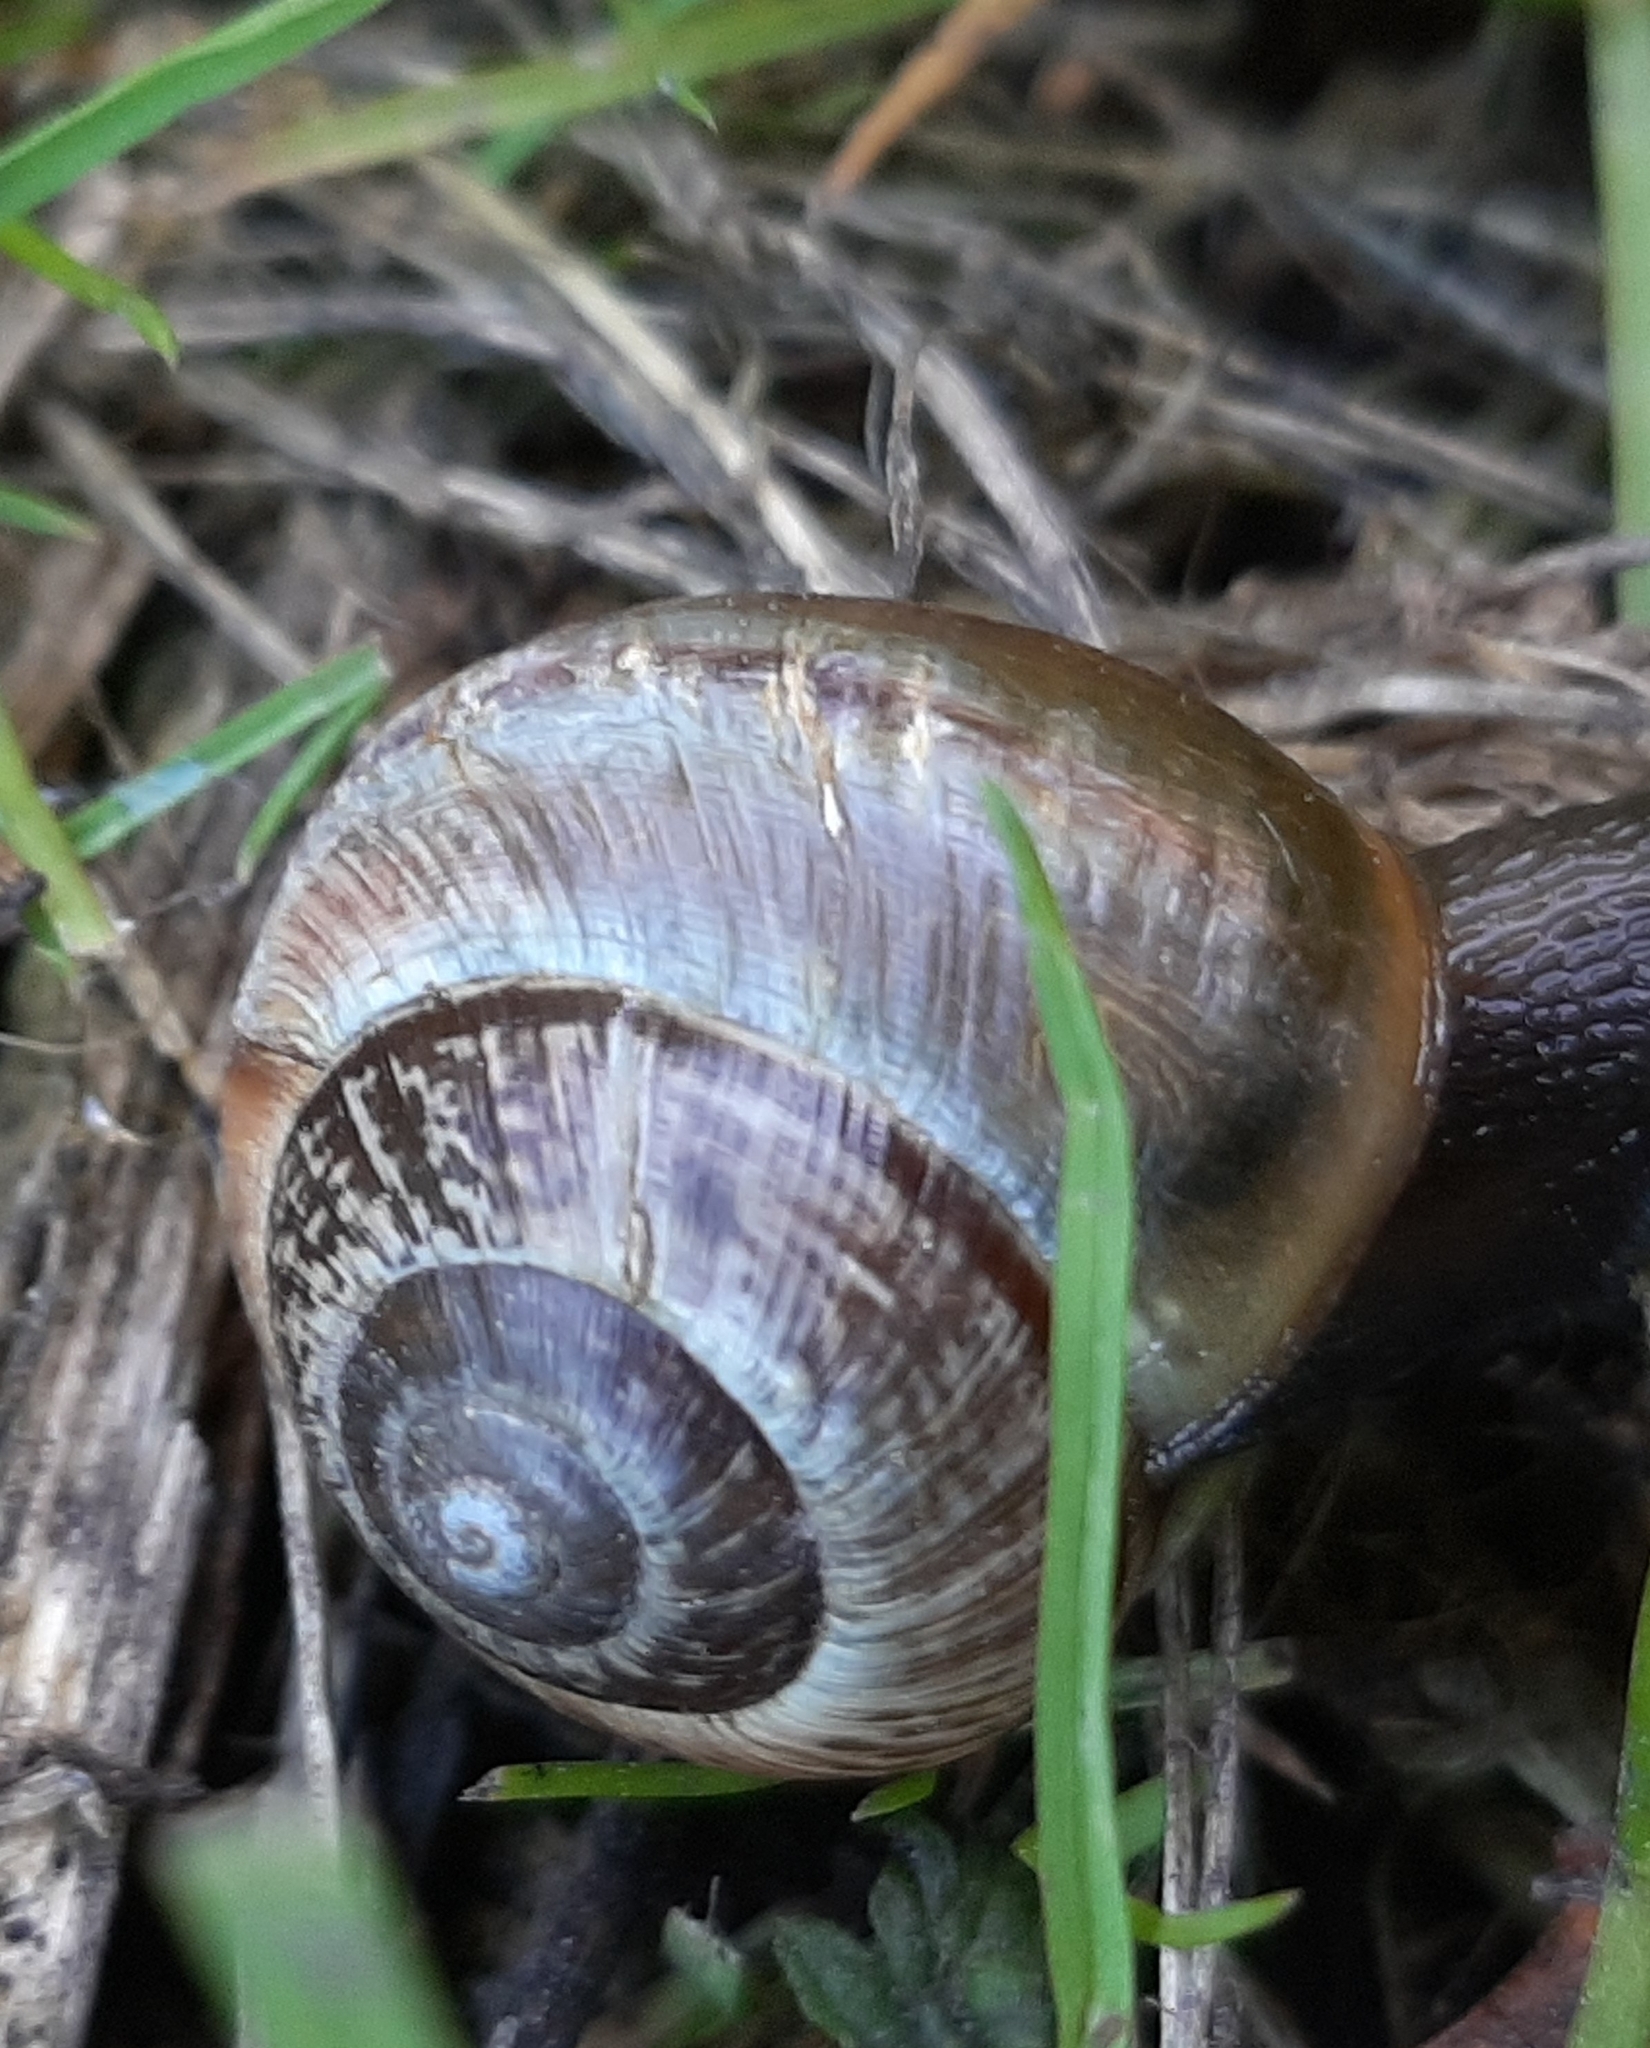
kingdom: Animalia
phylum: Mollusca
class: Gastropoda
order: Stylommatophora
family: Helicidae
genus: Arianta
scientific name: Arianta arbustorum
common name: Copse snail
